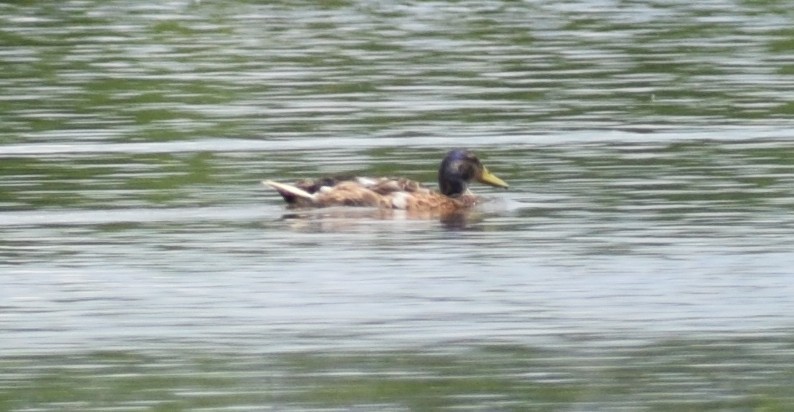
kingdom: Animalia
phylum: Chordata
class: Aves
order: Anseriformes
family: Anatidae
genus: Anas
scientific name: Anas platyrhynchos
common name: Mallard
